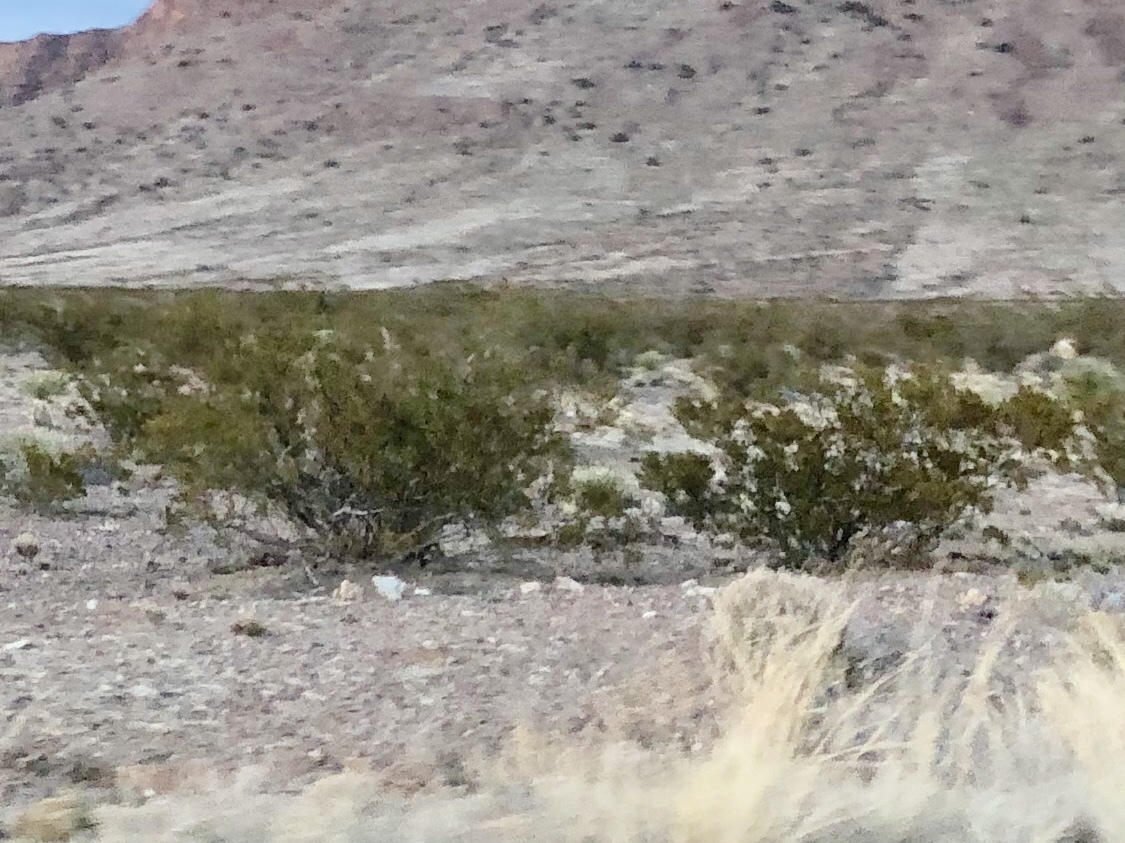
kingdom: Plantae
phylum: Tracheophyta
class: Magnoliopsida
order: Zygophyllales
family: Zygophyllaceae
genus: Larrea
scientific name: Larrea tridentata
